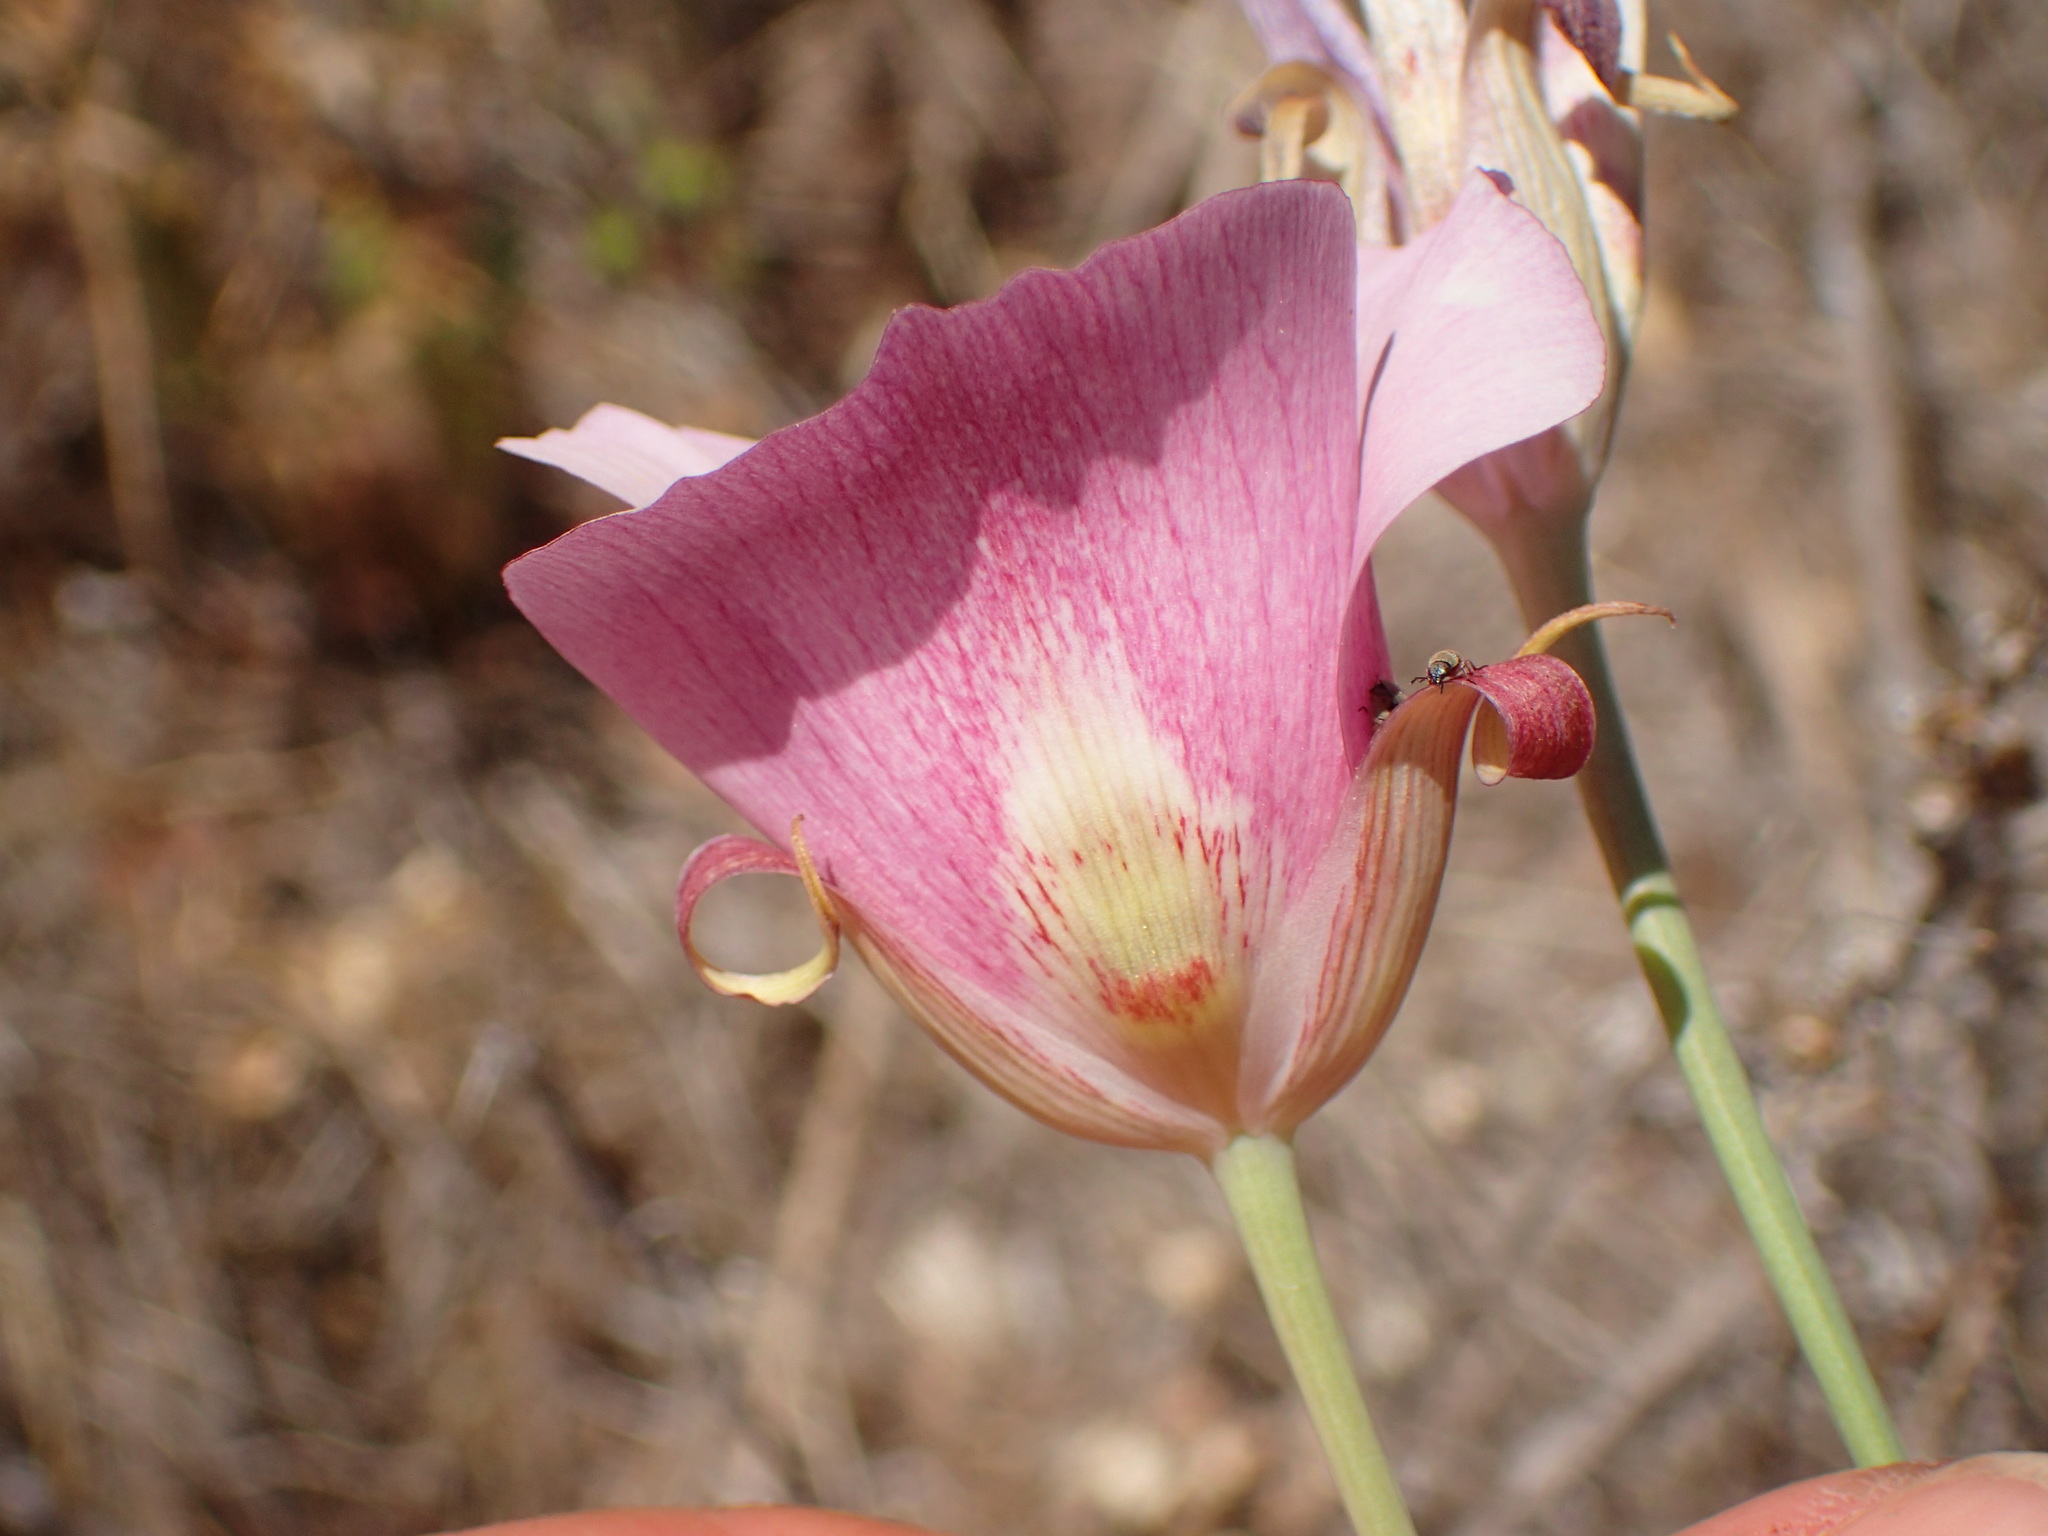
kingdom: Plantae
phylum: Tracheophyta
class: Liliopsida
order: Liliales
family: Liliaceae
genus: Calochortus
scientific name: Calochortus venustus
